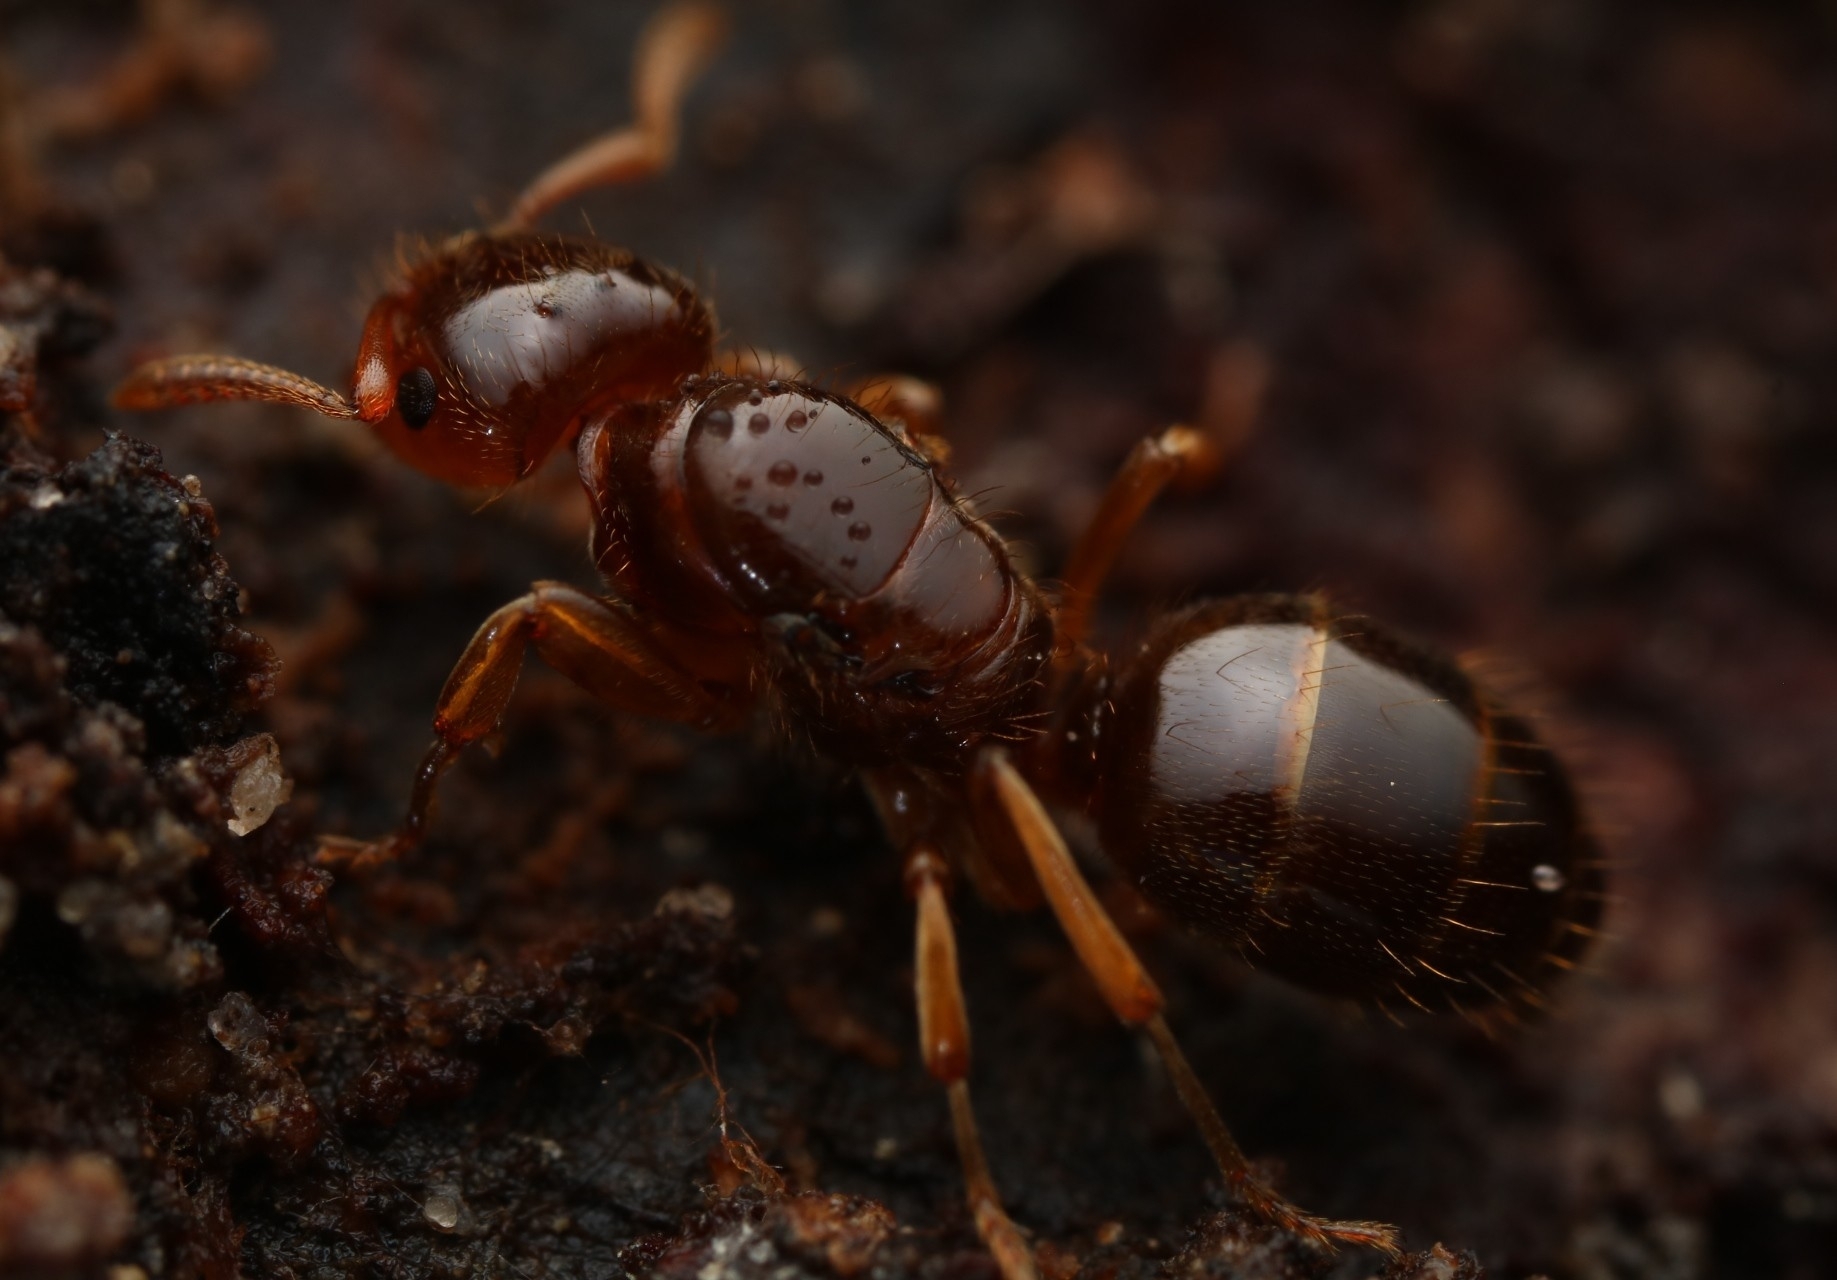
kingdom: Animalia
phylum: Arthropoda
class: Insecta
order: Hymenoptera
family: Formicidae
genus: Lasius
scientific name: Lasius claviger
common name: Common citronella ant
